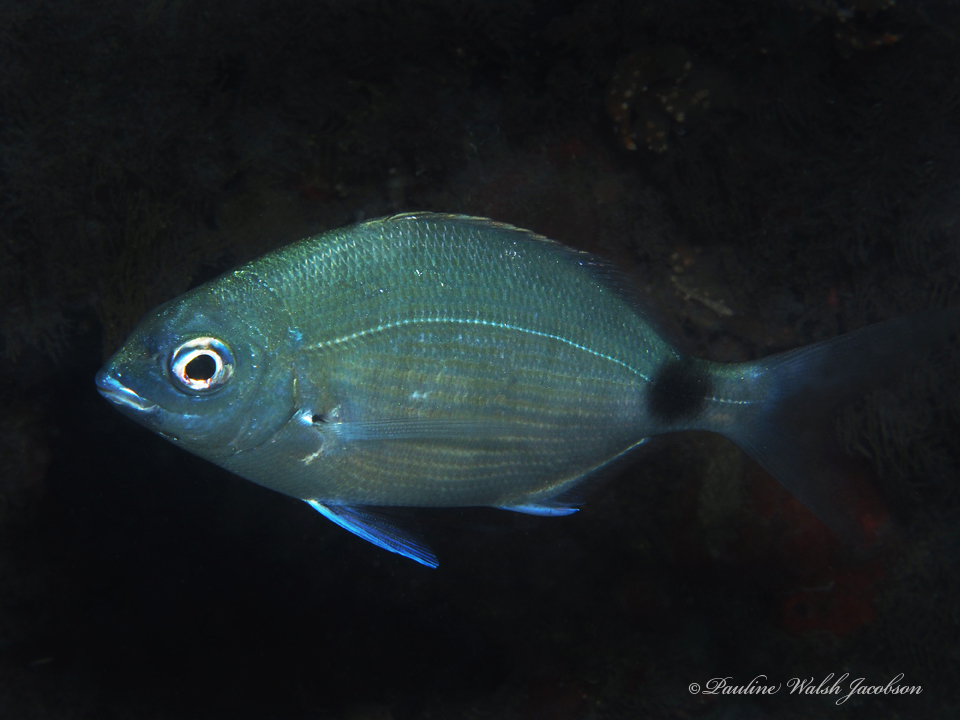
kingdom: Animalia
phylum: Chordata
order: Perciformes
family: Sparidae
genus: Diplodus
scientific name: Diplodus caudimacula
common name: Silver porgy
